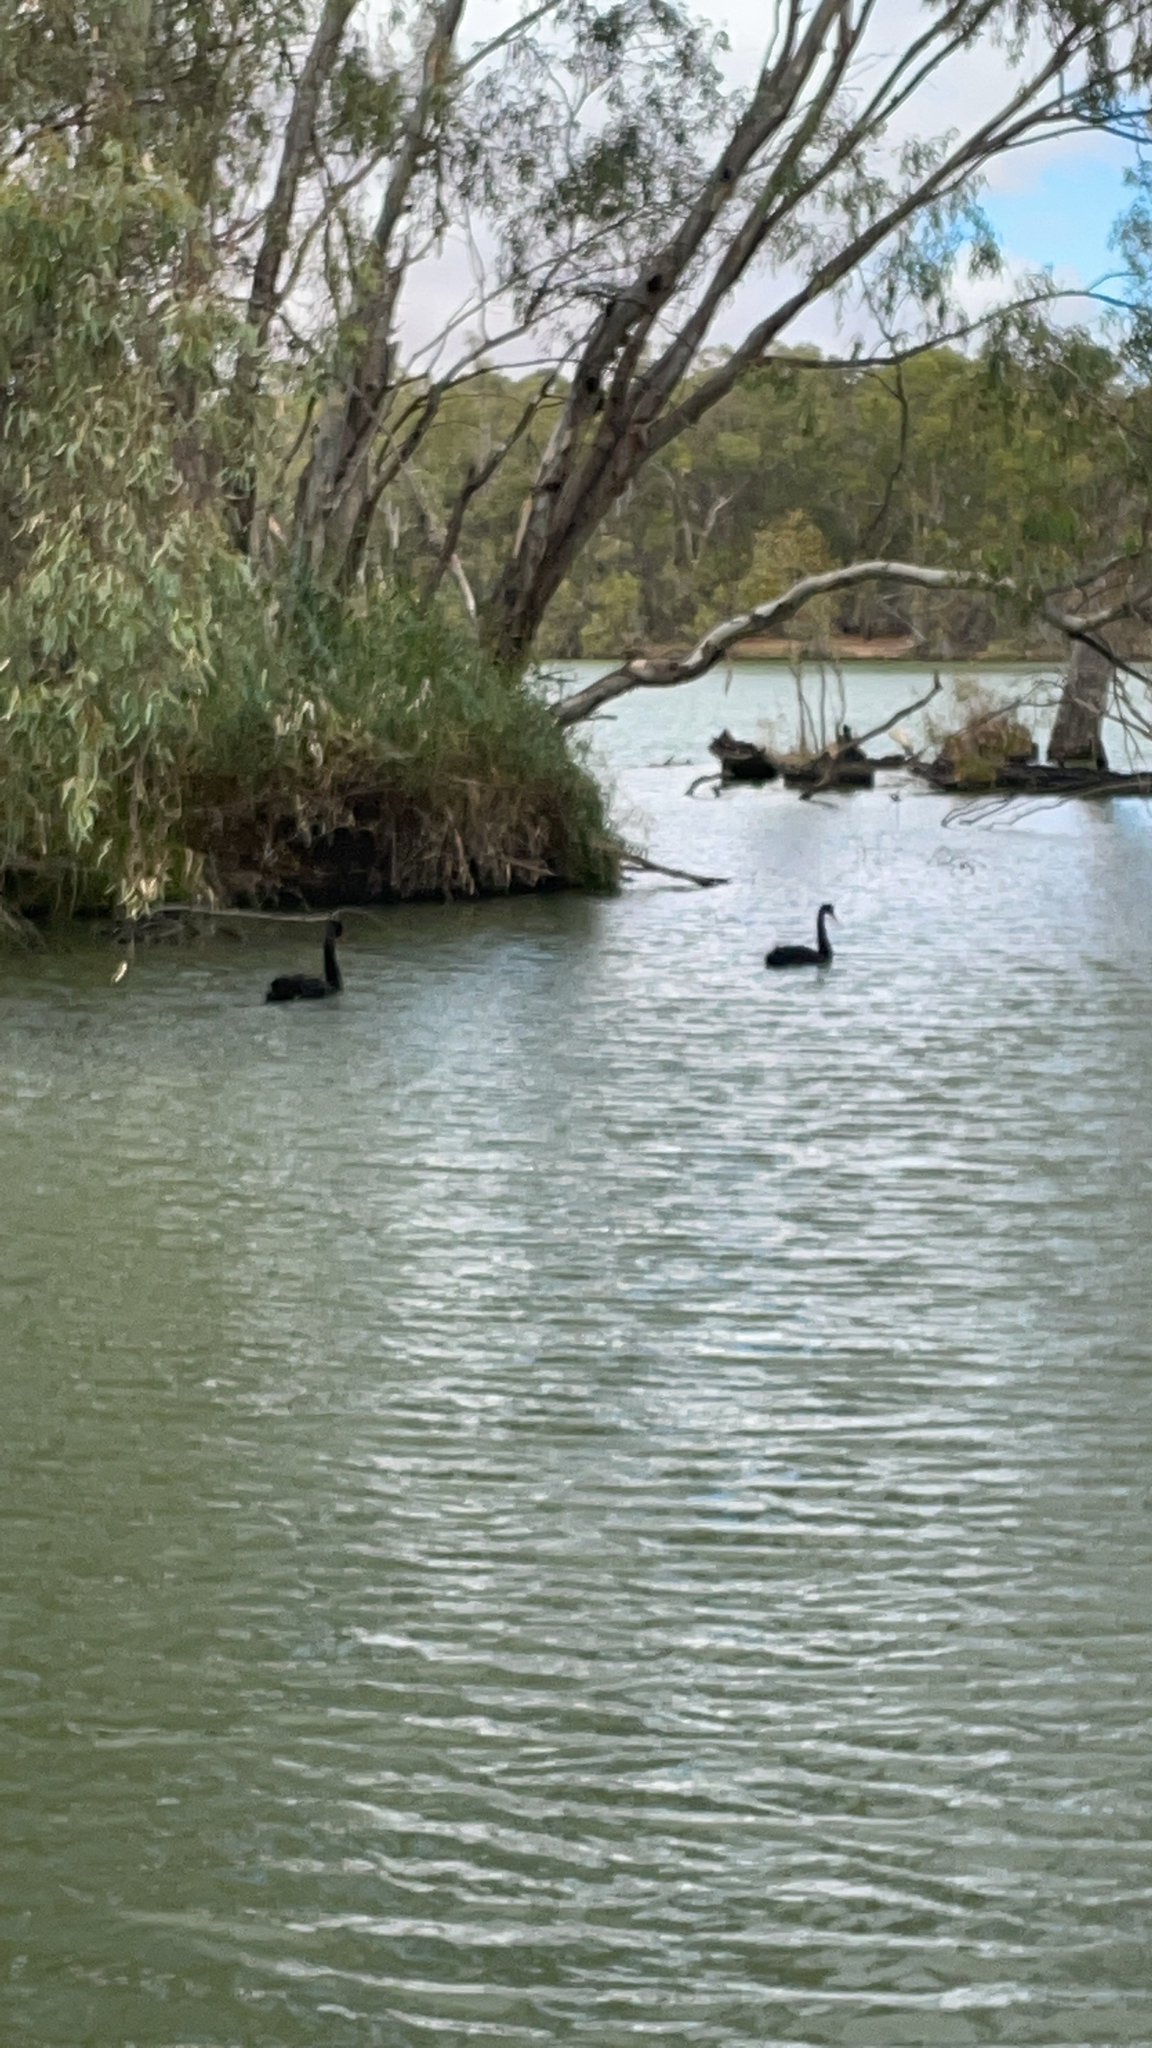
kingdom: Animalia
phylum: Chordata
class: Aves
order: Anseriformes
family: Anatidae
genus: Cygnus
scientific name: Cygnus atratus
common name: Black swan
